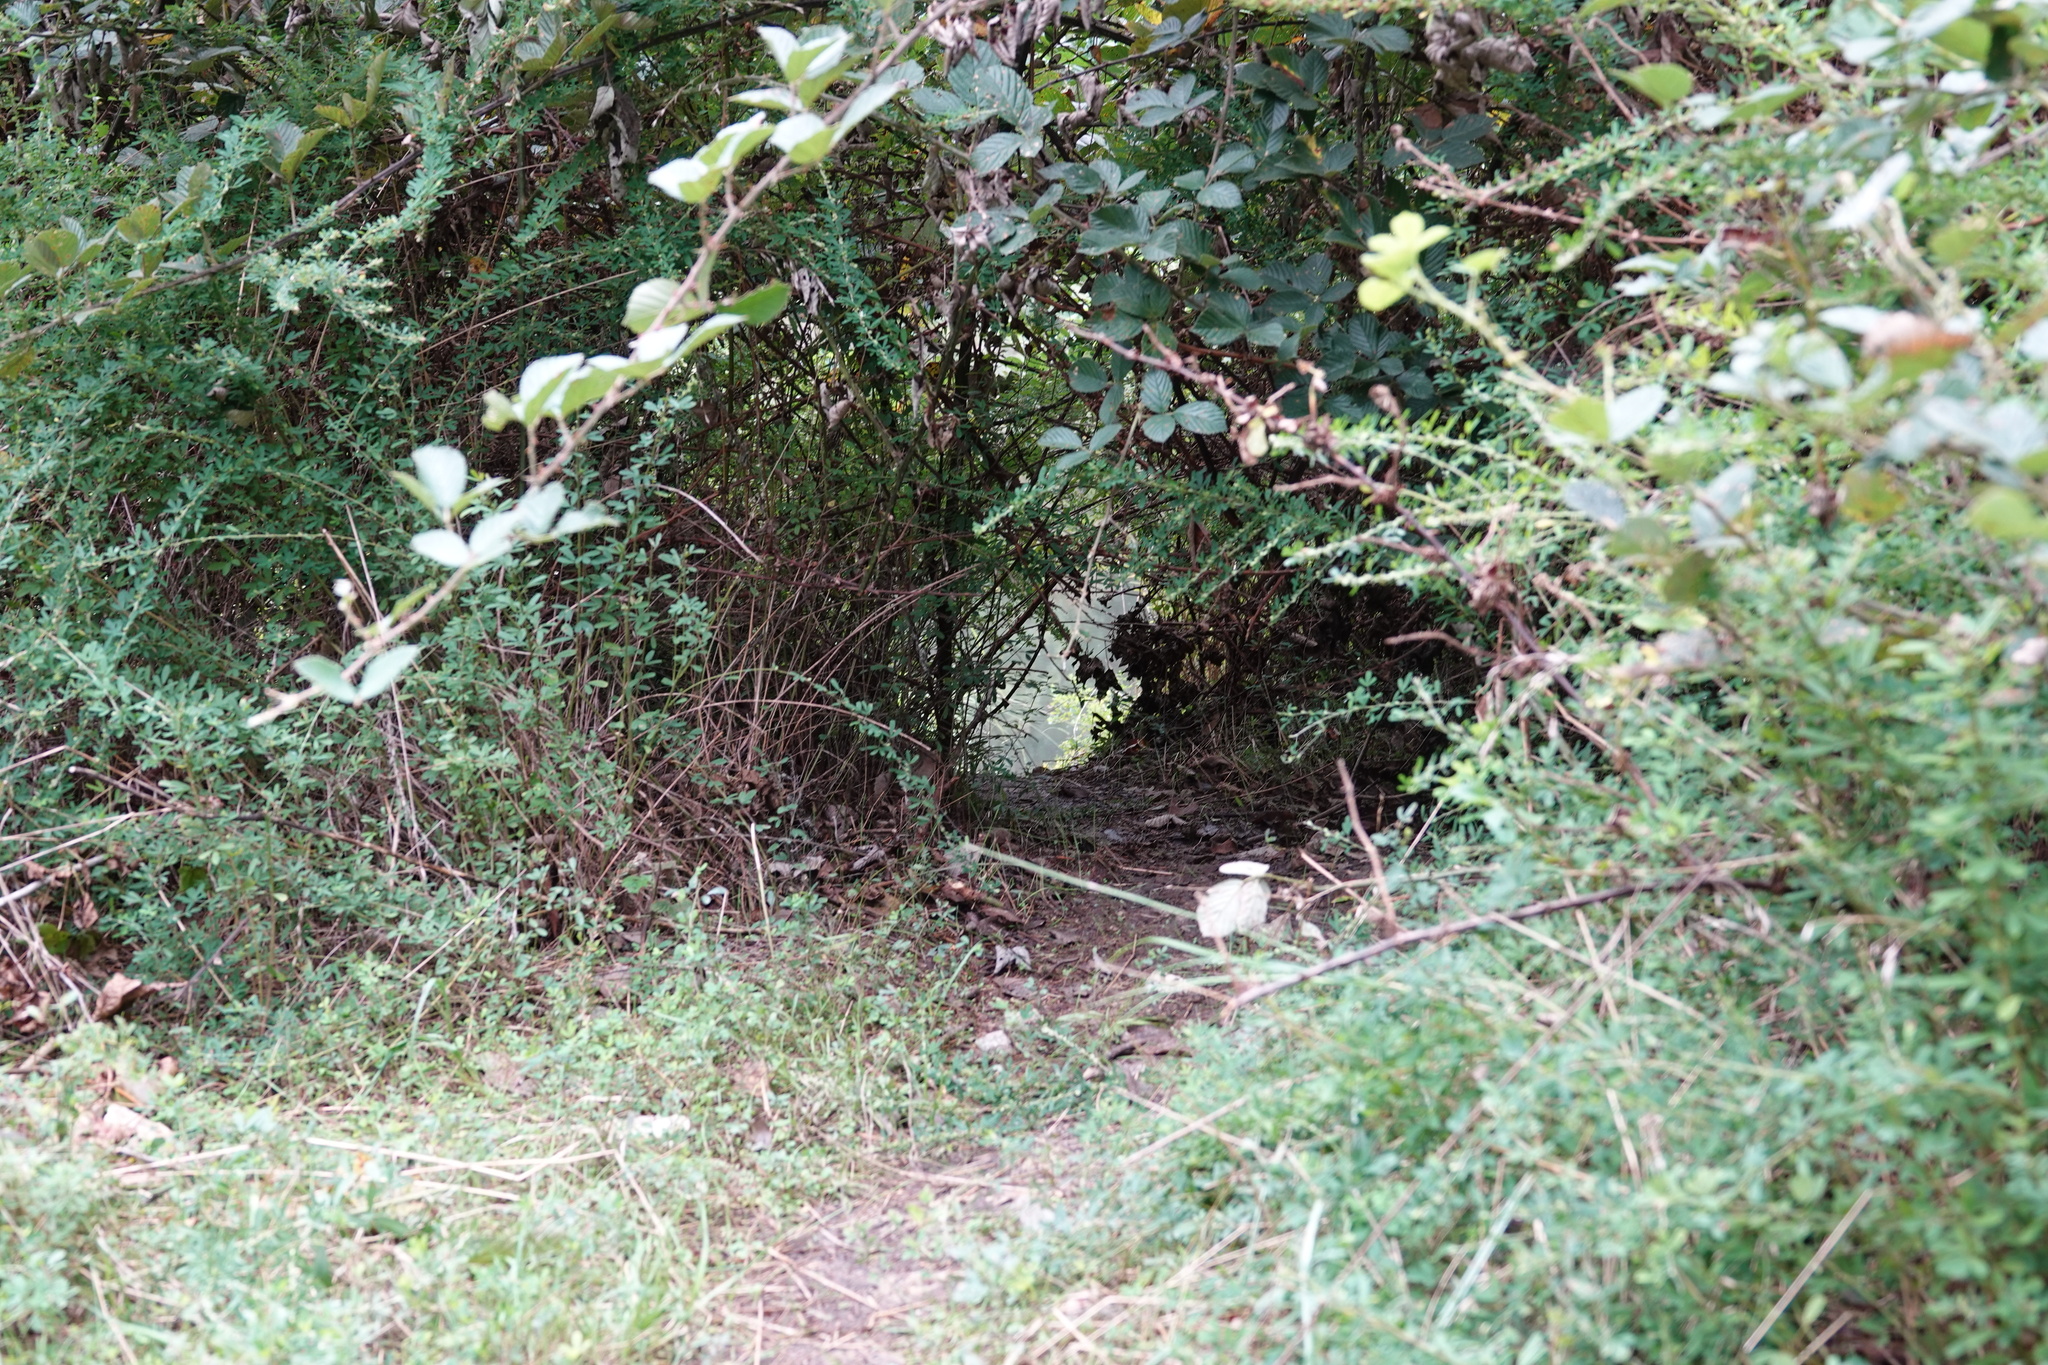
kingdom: Animalia
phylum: Chordata
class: Mammalia
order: Rodentia
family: Castoridae
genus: Castor
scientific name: Castor canadensis
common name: American beaver
